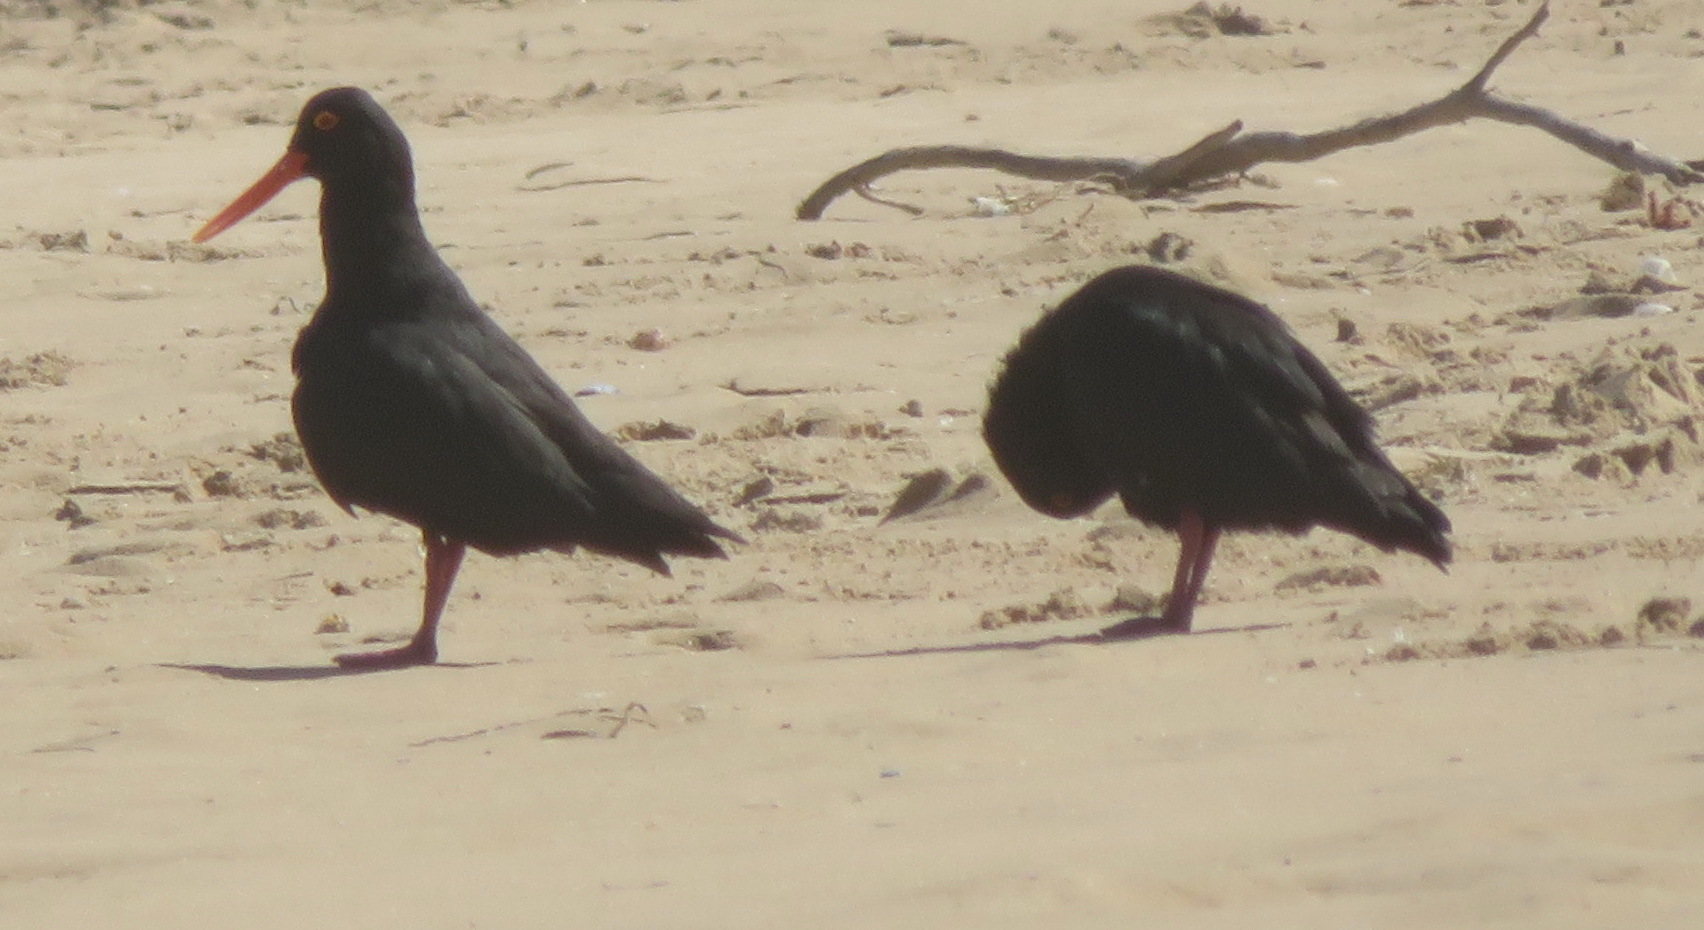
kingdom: Animalia
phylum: Chordata
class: Aves
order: Charadriiformes
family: Haematopodidae
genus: Haematopus
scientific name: Haematopus moquini
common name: African oystercatcher
